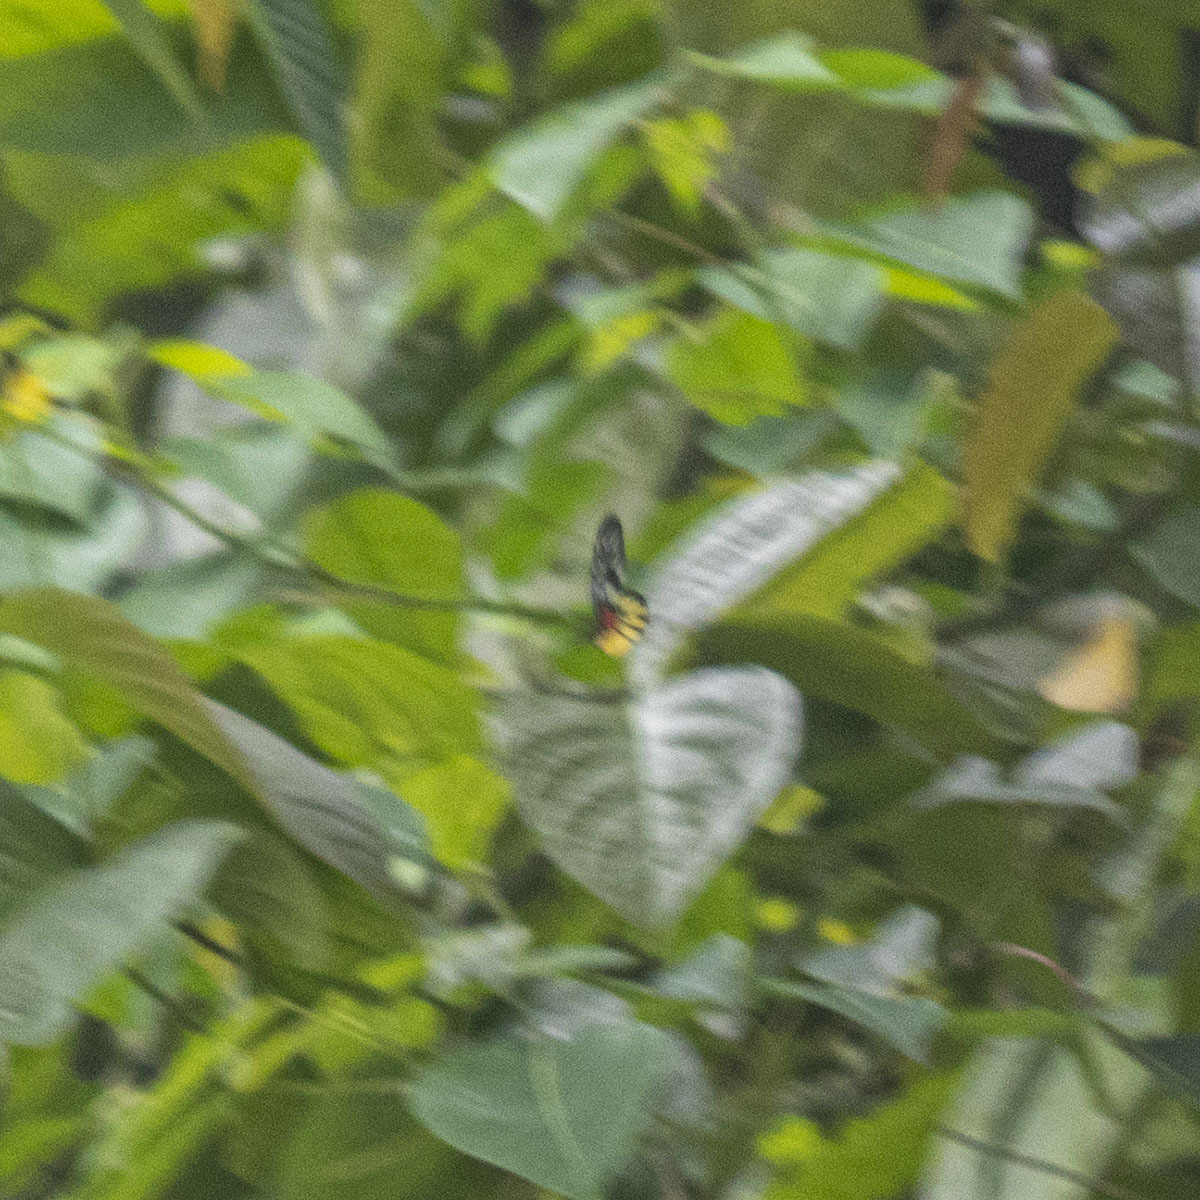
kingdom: Animalia
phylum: Arthropoda
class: Insecta
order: Lepidoptera
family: Pieridae
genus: Delias
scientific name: Delias pasithoe
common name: Red-base jezebel
